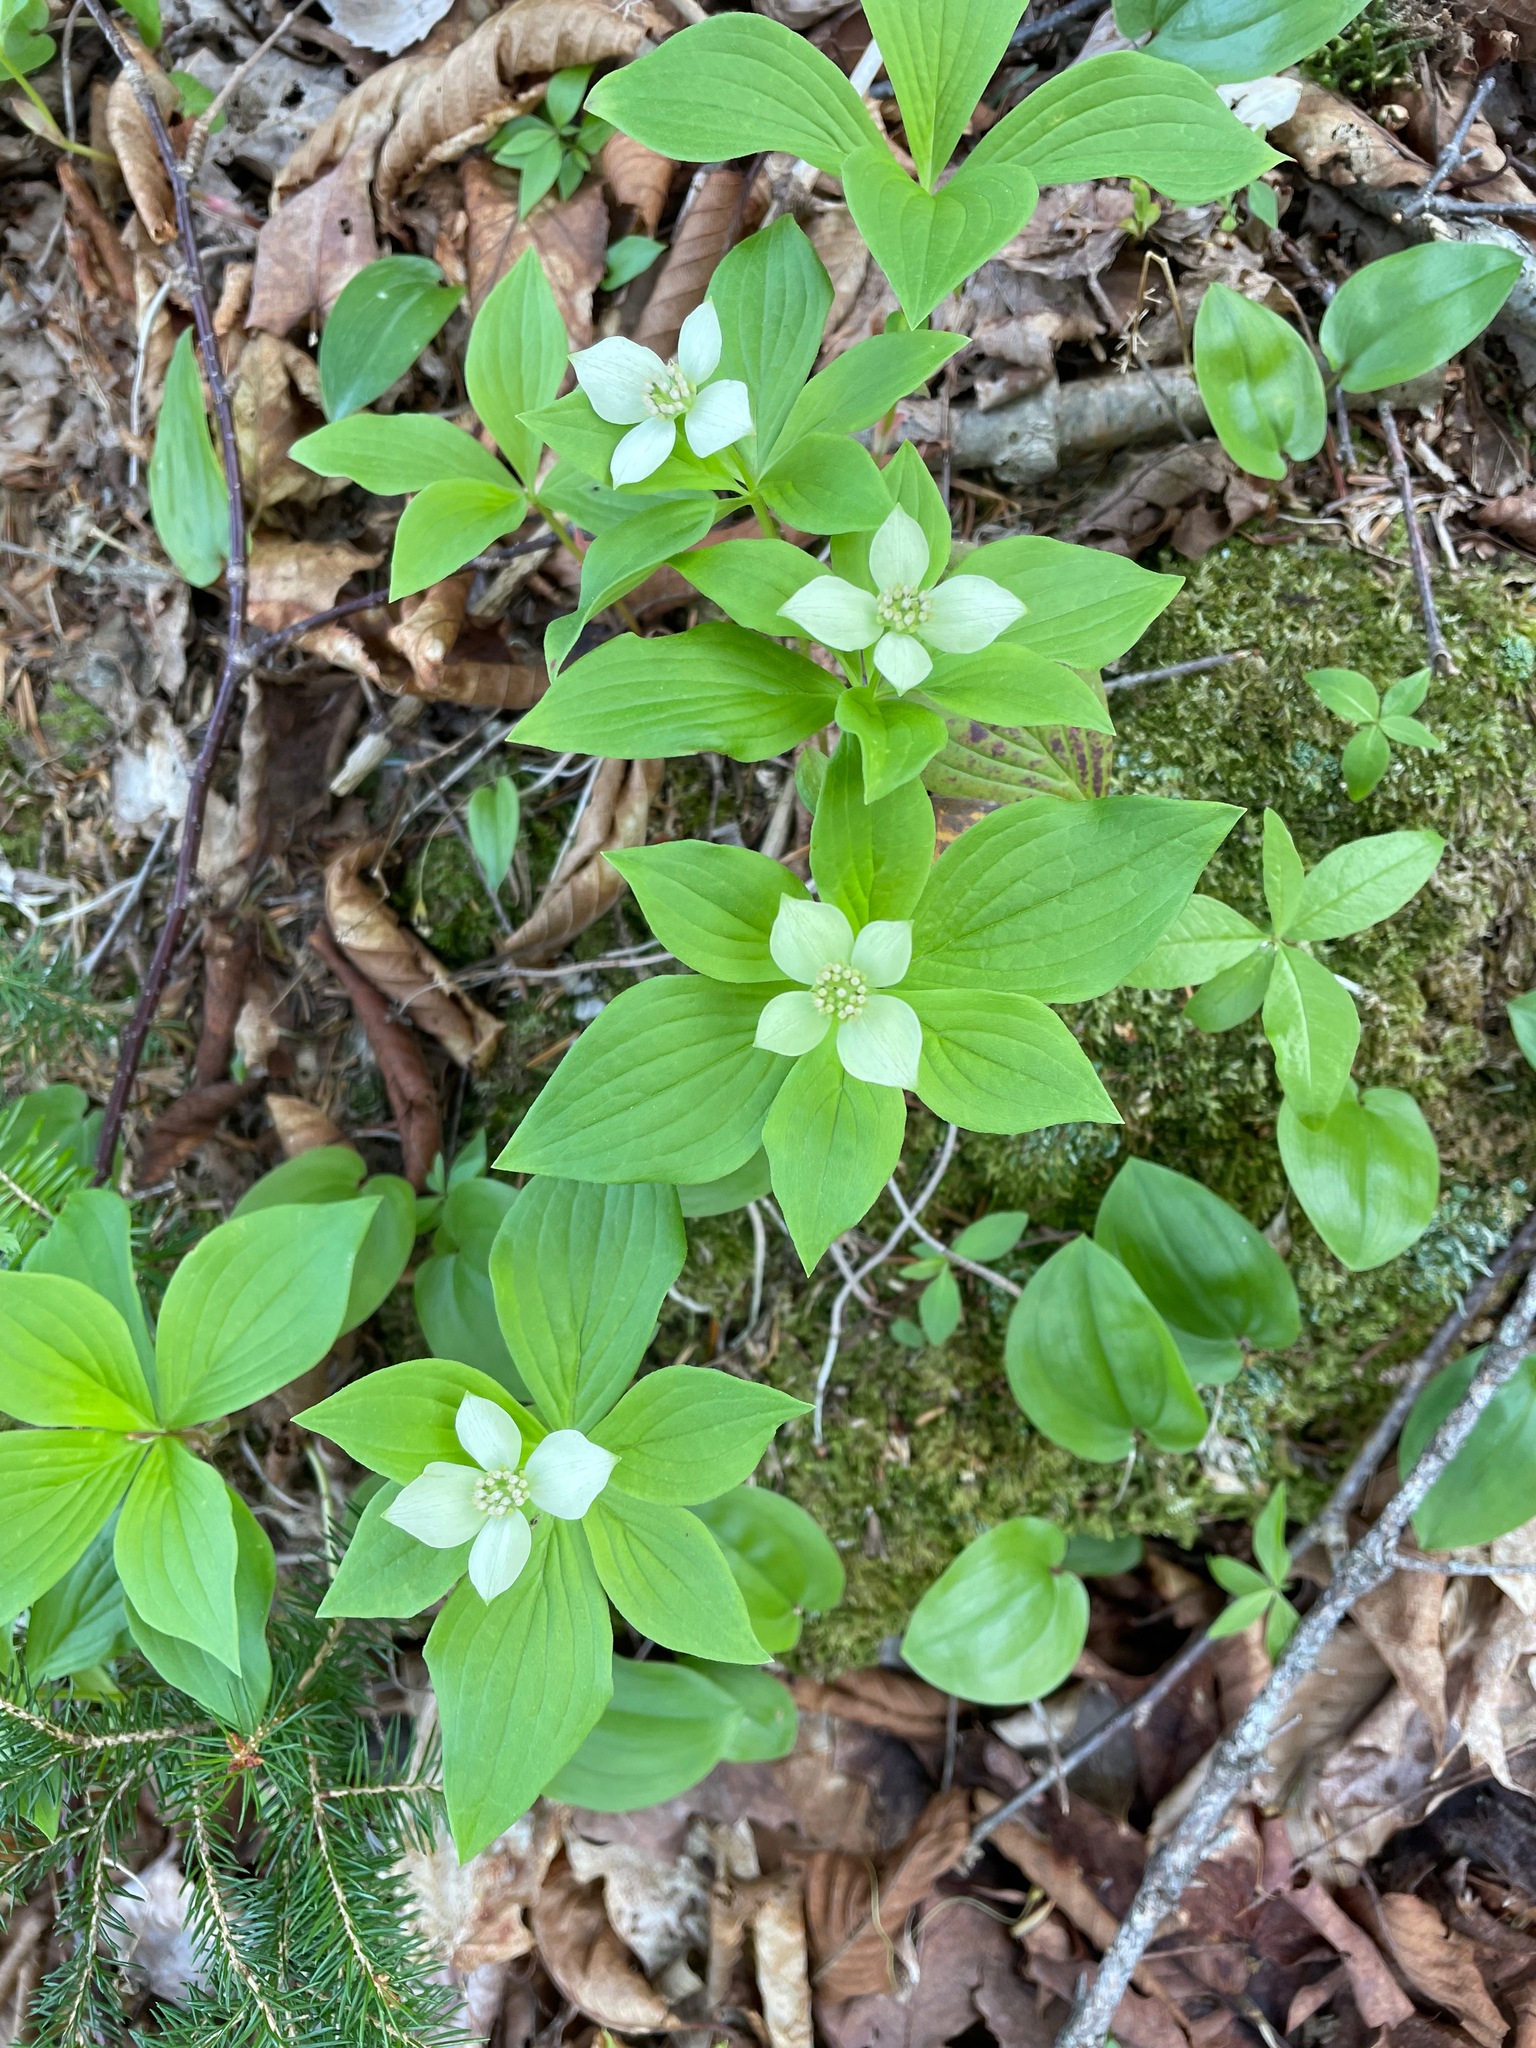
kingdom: Plantae
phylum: Tracheophyta
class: Magnoliopsida
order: Cornales
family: Cornaceae
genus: Cornus
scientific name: Cornus canadensis
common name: Creeping dogwood
